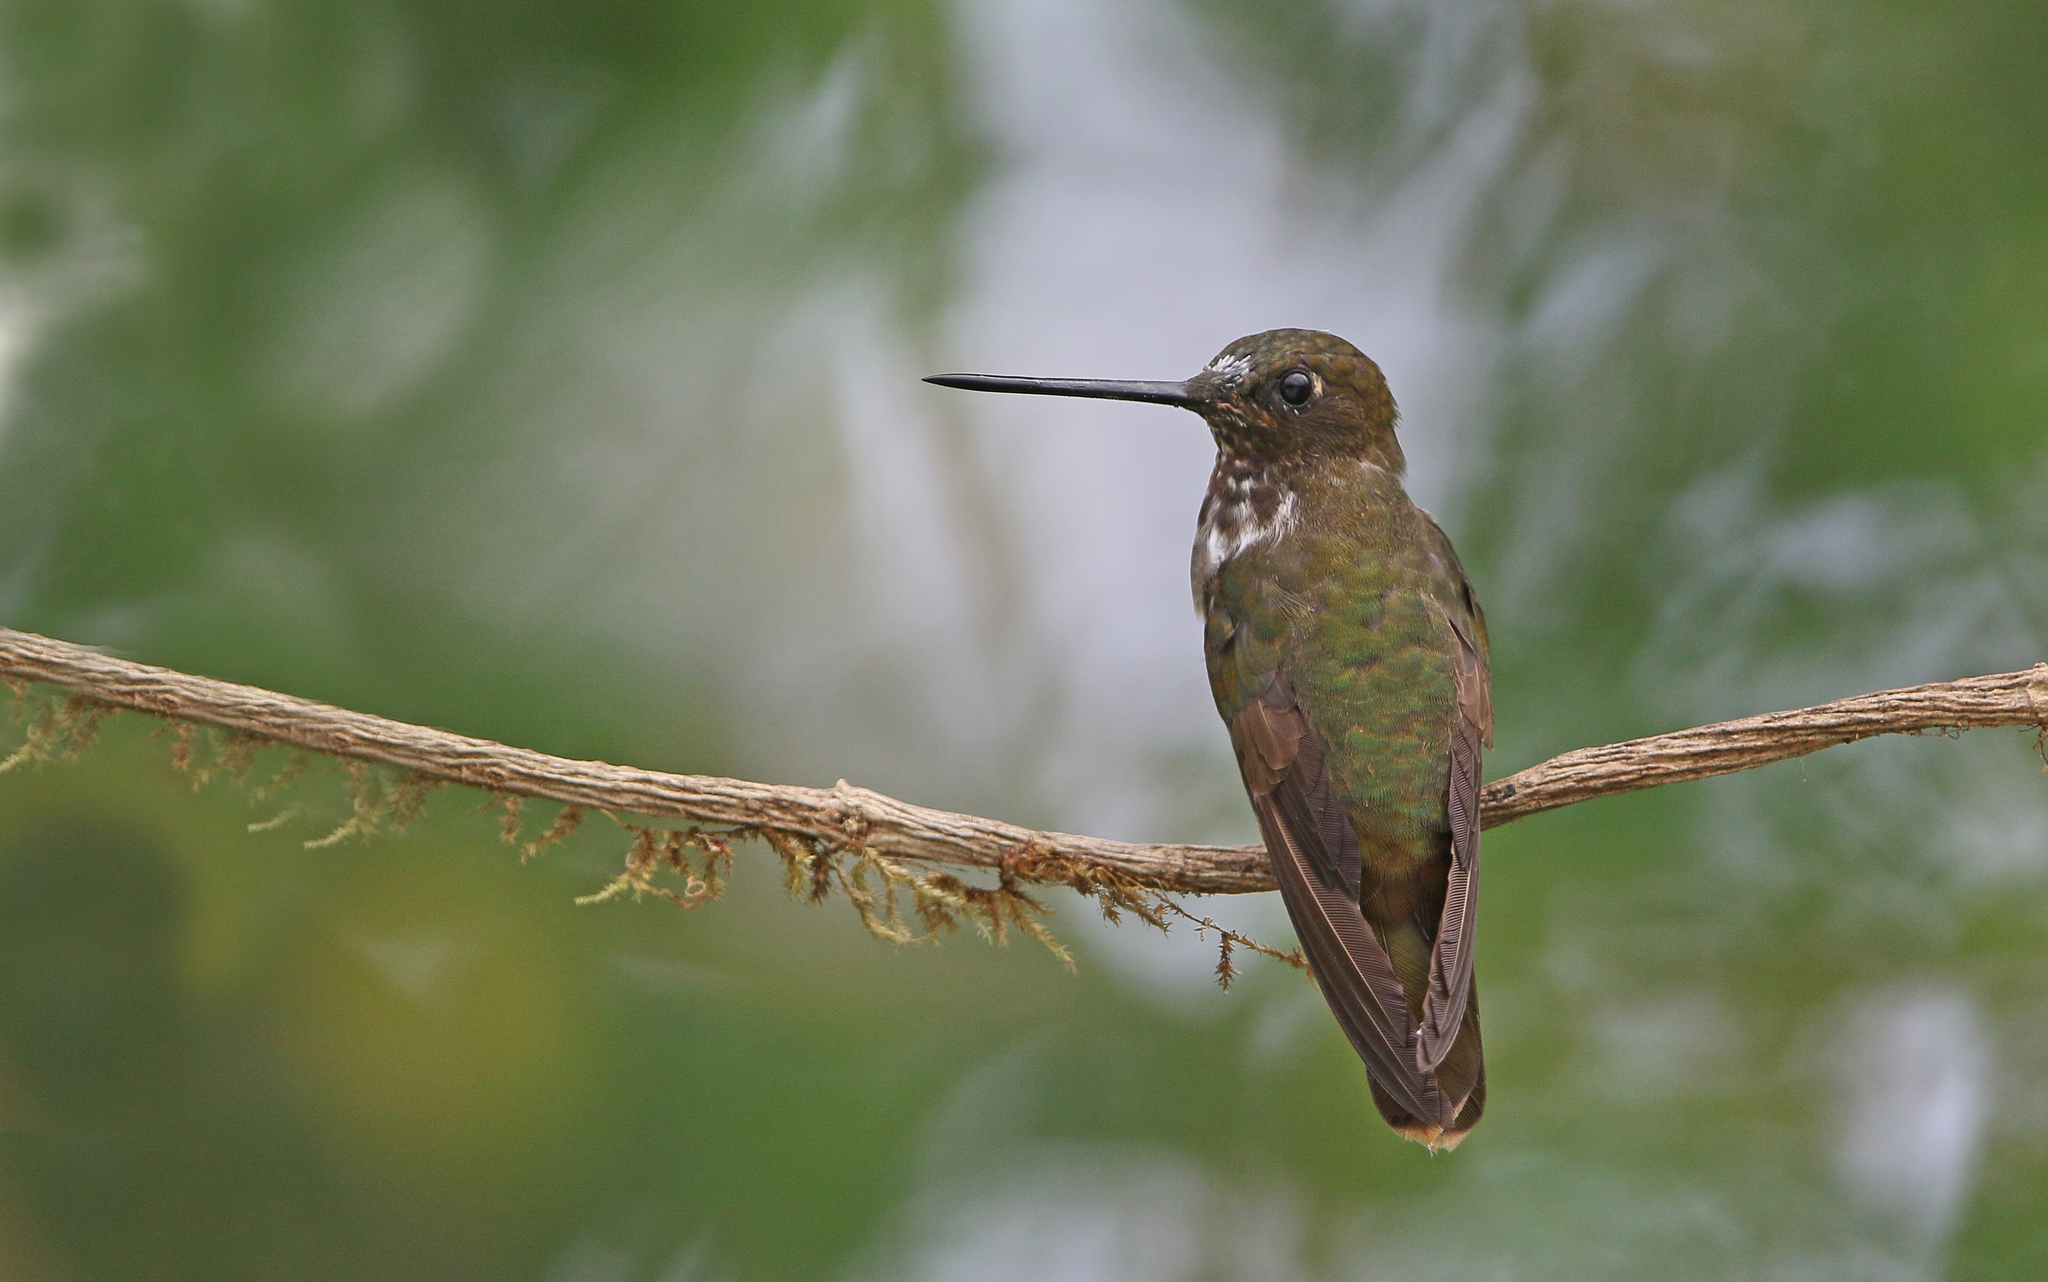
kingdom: Animalia
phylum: Chordata
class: Aves
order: Apodiformes
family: Trochilidae
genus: Coeligena
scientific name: Coeligena wilsoni
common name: Brown inca
